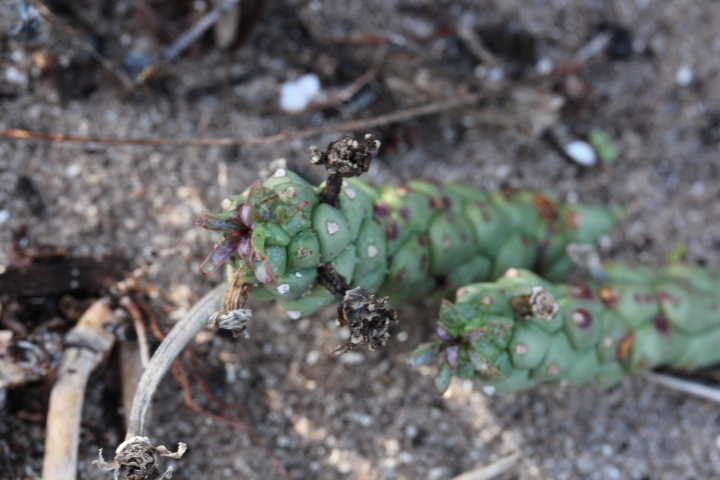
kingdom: Plantae
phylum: Tracheophyta
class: Magnoliopsida
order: Malpighiales
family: Euphorbiaceae
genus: Euphorbia
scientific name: Euphorbia caput-medusae
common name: Medusa's-head
